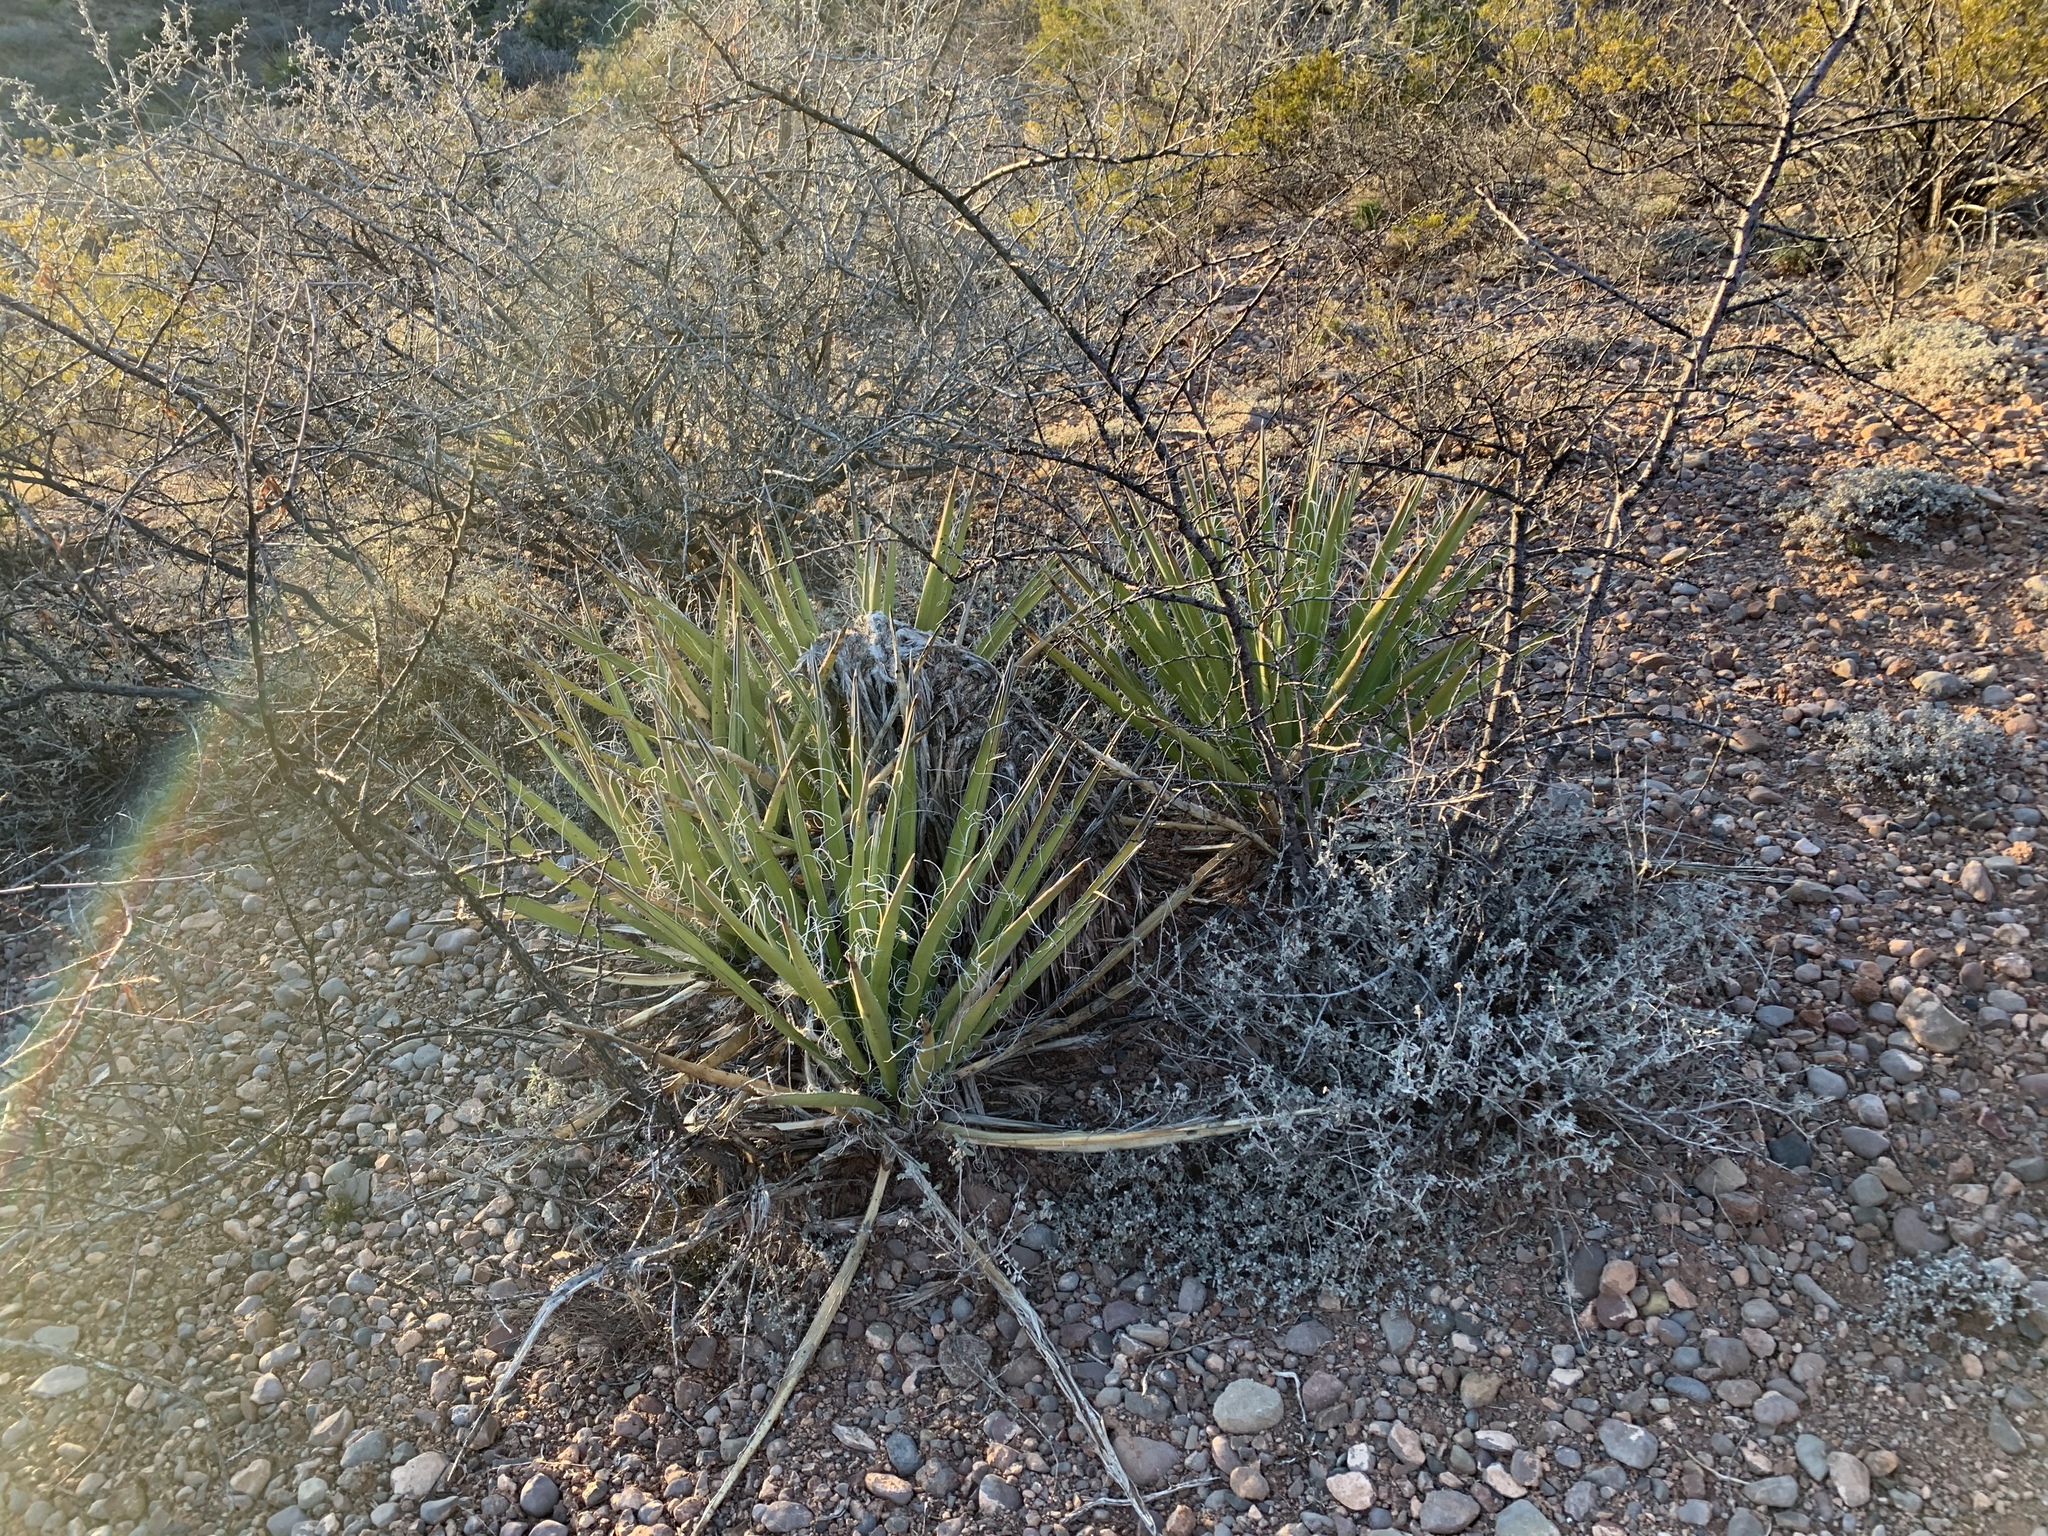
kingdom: Plantae
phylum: Tracheophyta
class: Liliopsida
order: Asparagales
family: Asparagaceae
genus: Yucca
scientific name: Yucca baccata
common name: Banana yucca
